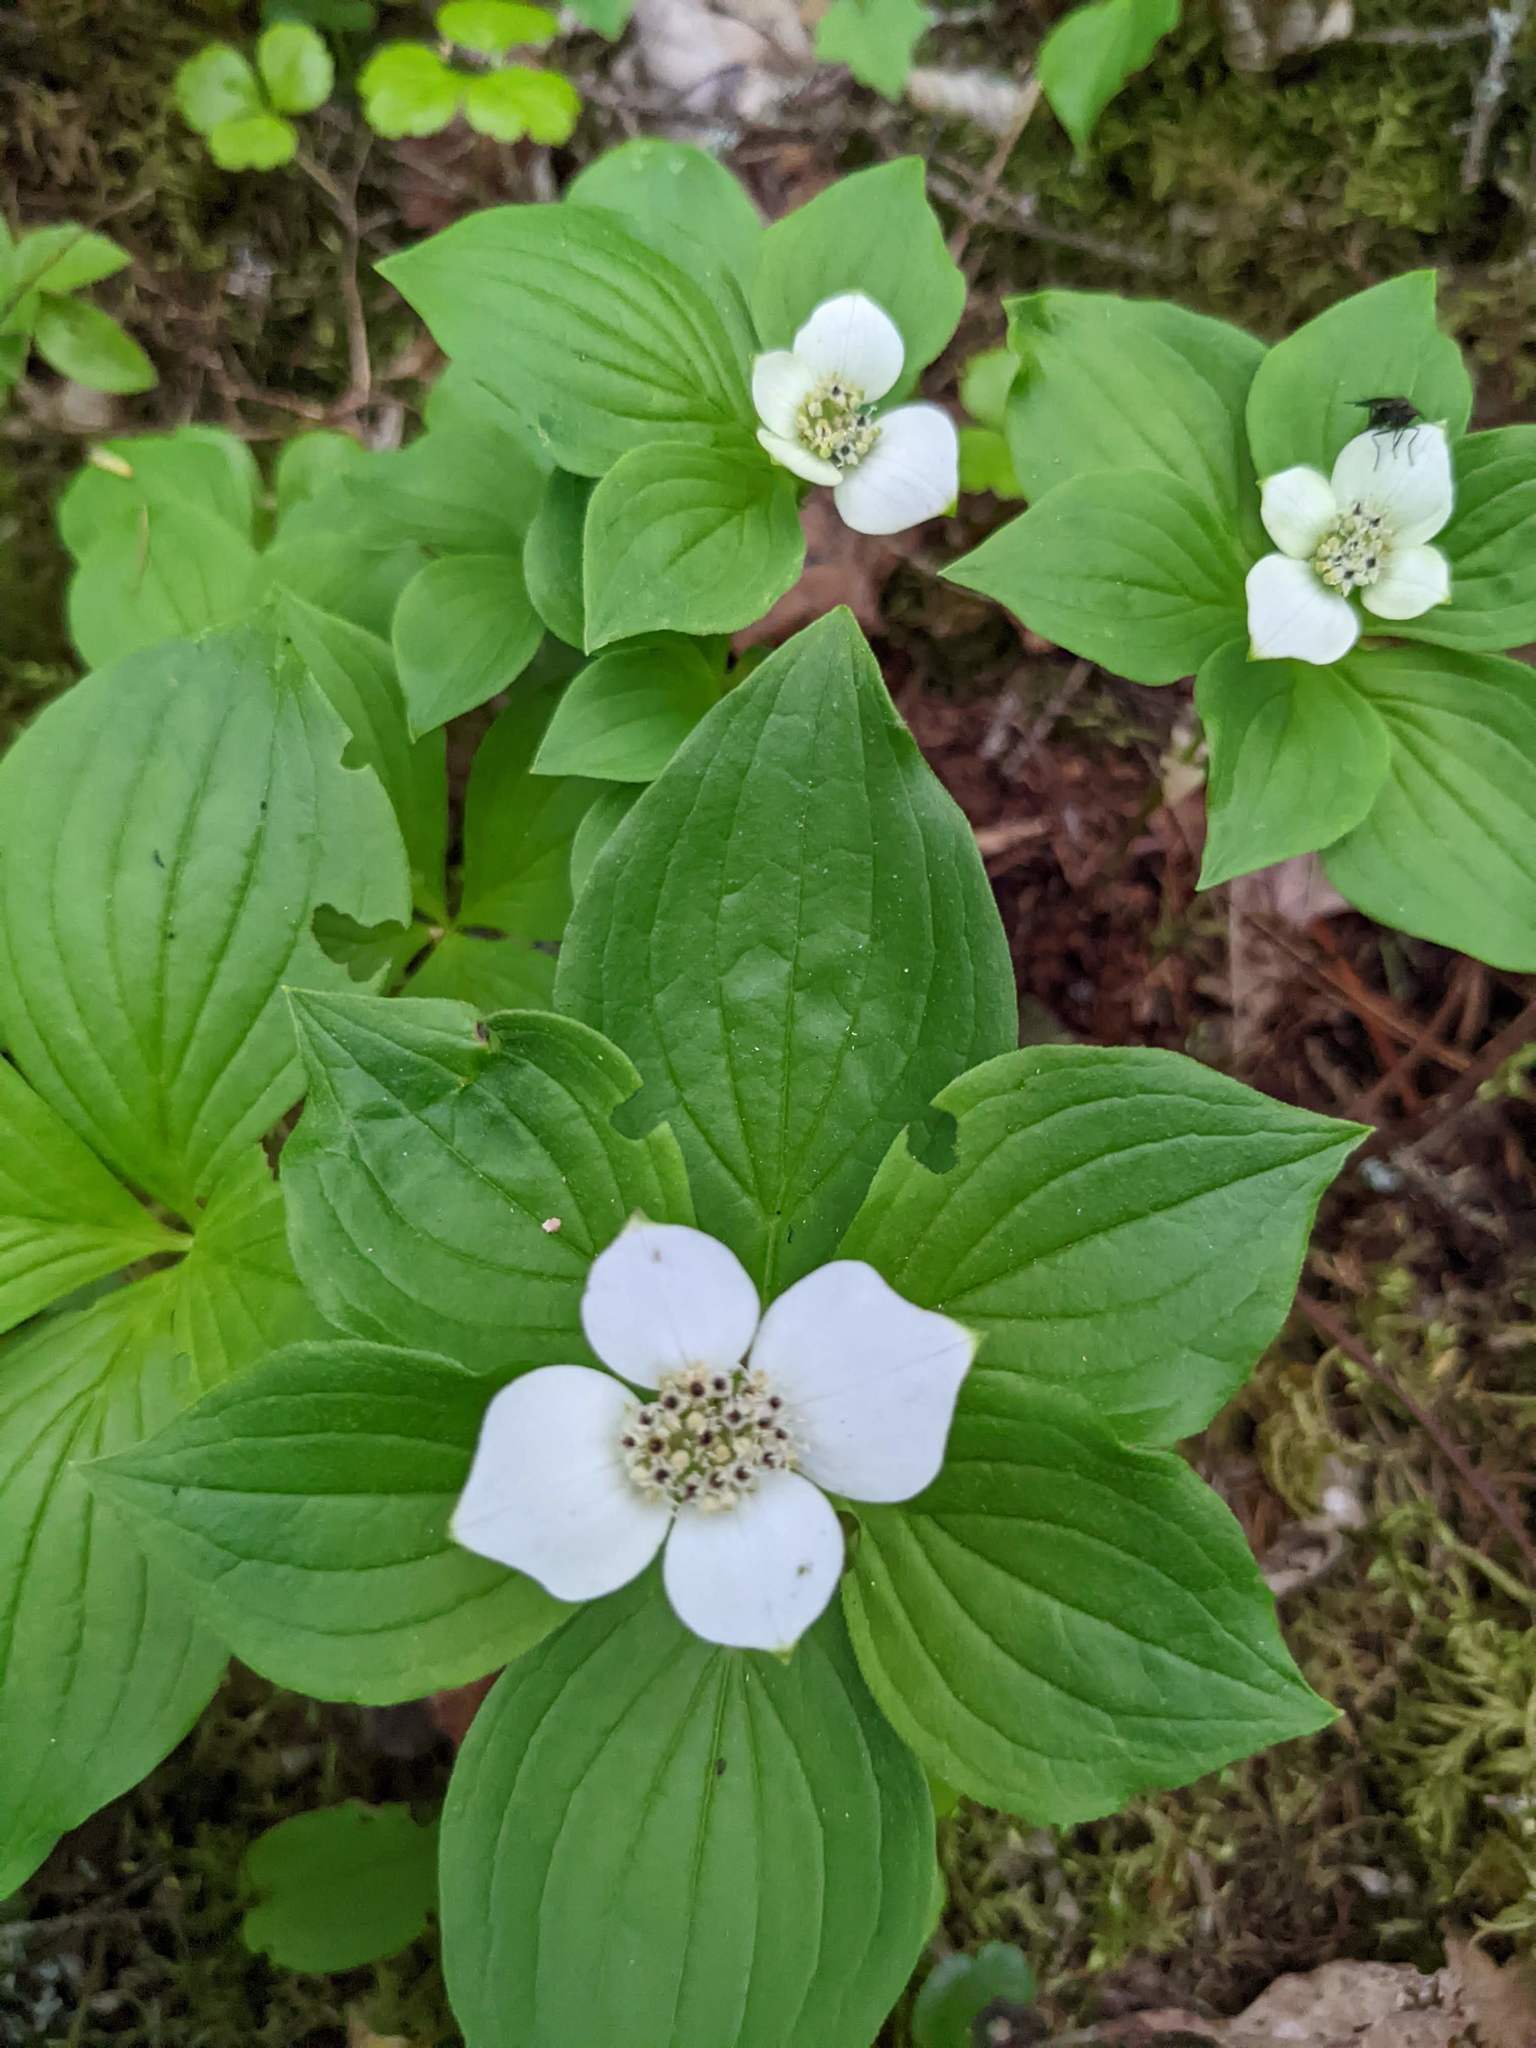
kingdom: Plantae
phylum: Tracheophyta
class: Magnoliopsida
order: Cornales
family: Cornaceae
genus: Cornus
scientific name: Cornus canadensis
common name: Creeping dogwood
